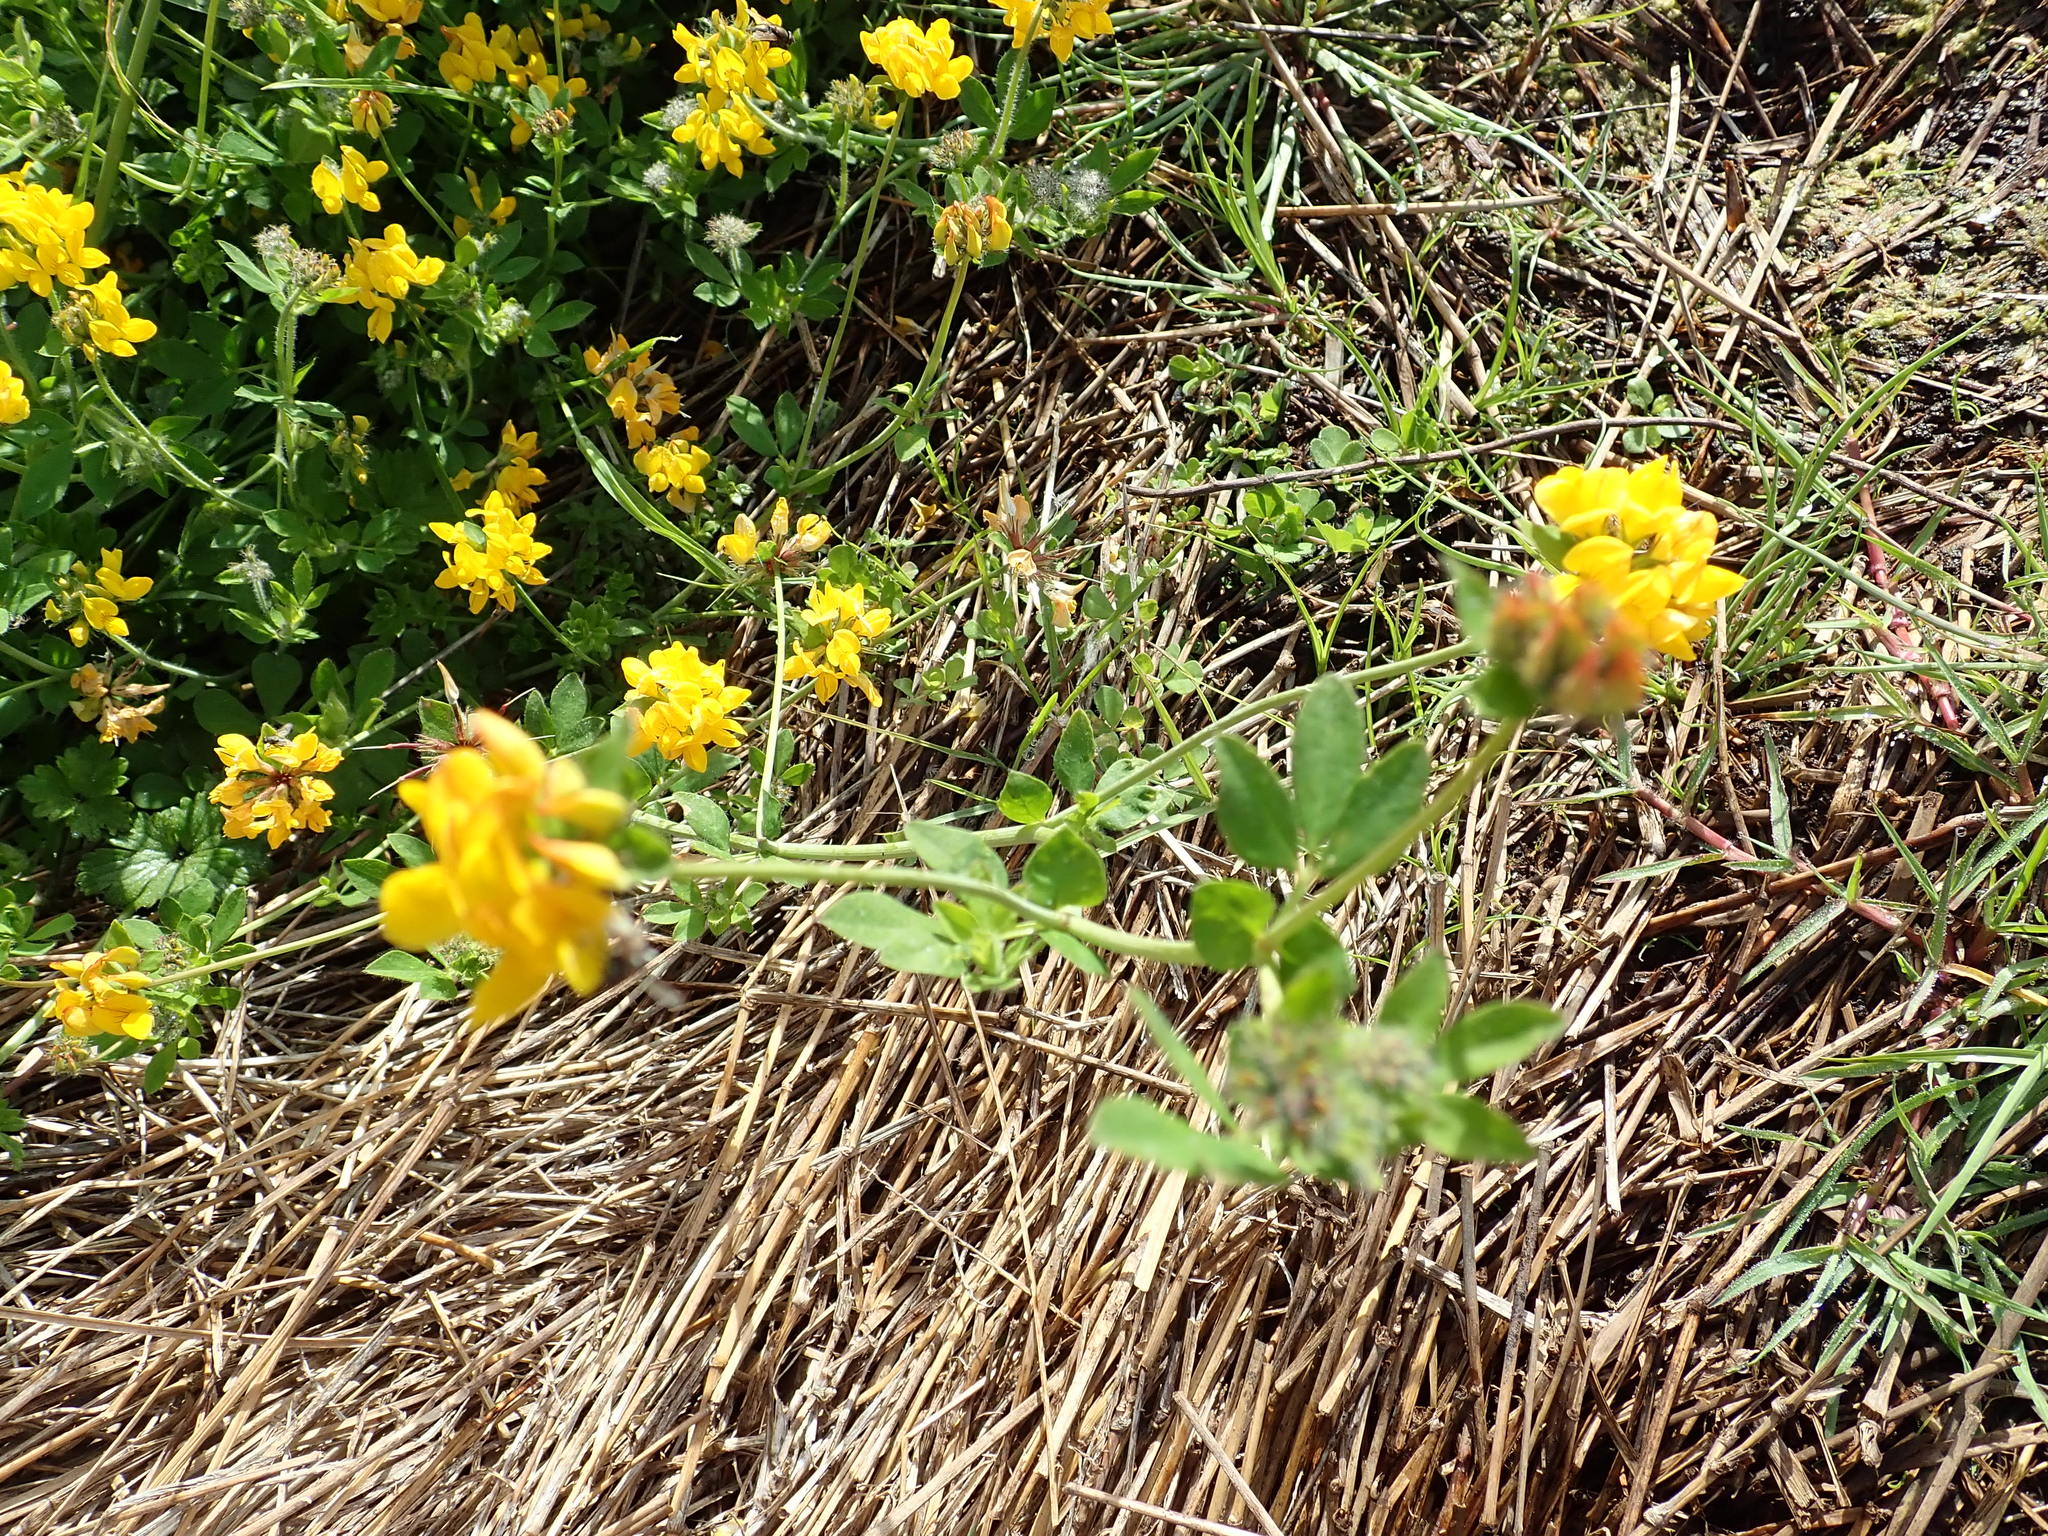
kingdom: Plantae
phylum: Tracheophyta
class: Magnoliopsida
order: Fabales
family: Fabaceae
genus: Lotus
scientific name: Lotus pedunculatus
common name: Greater birdsfoot-trefoil
